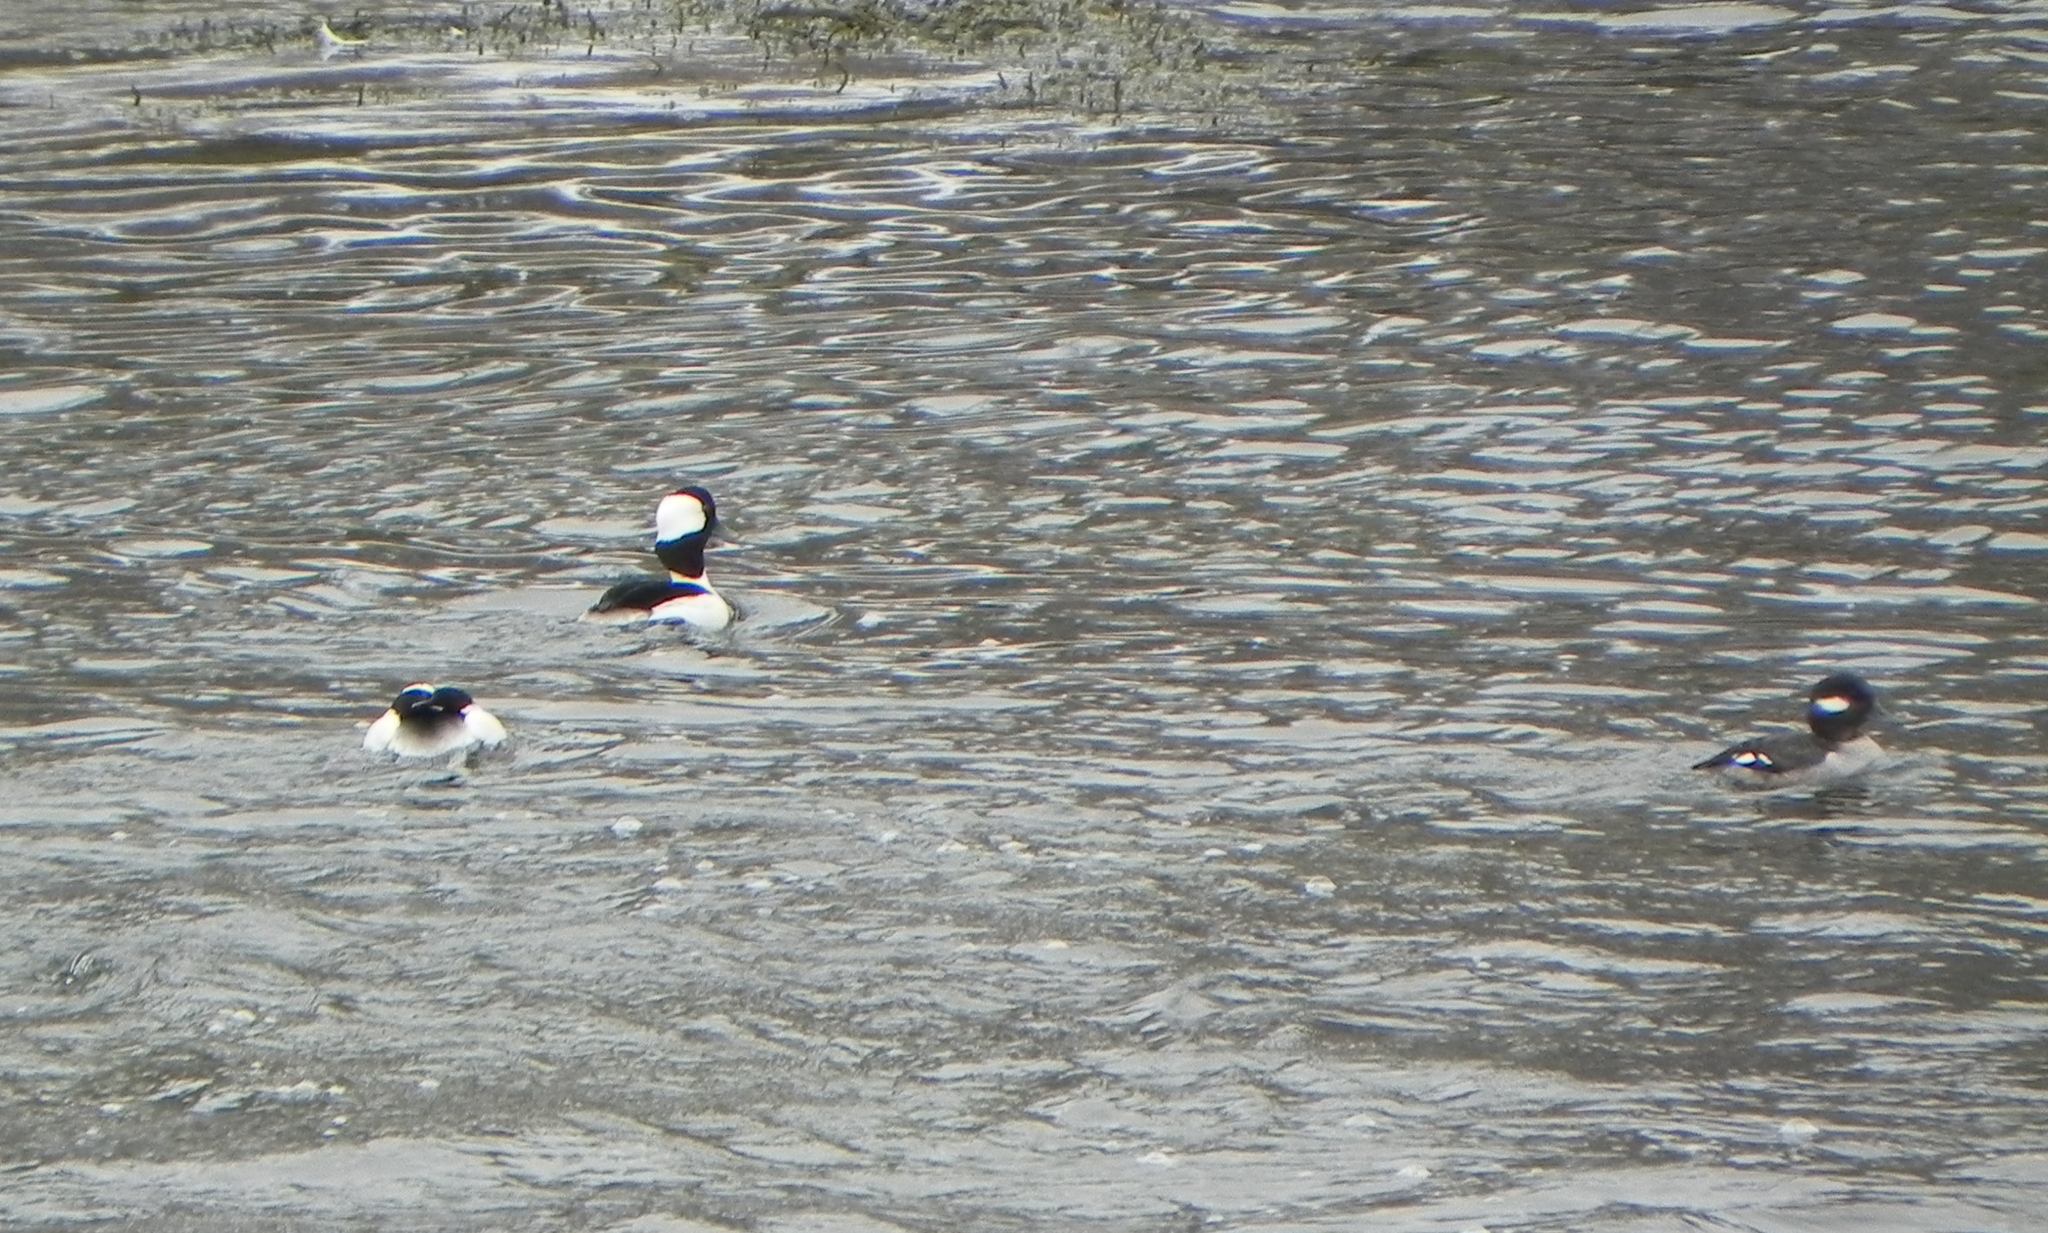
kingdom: Animalia
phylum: Chordata
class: Aves
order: Anseriformes
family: Anatidae
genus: Bucephala
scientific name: Bucephala albeola
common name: Bufflehead
